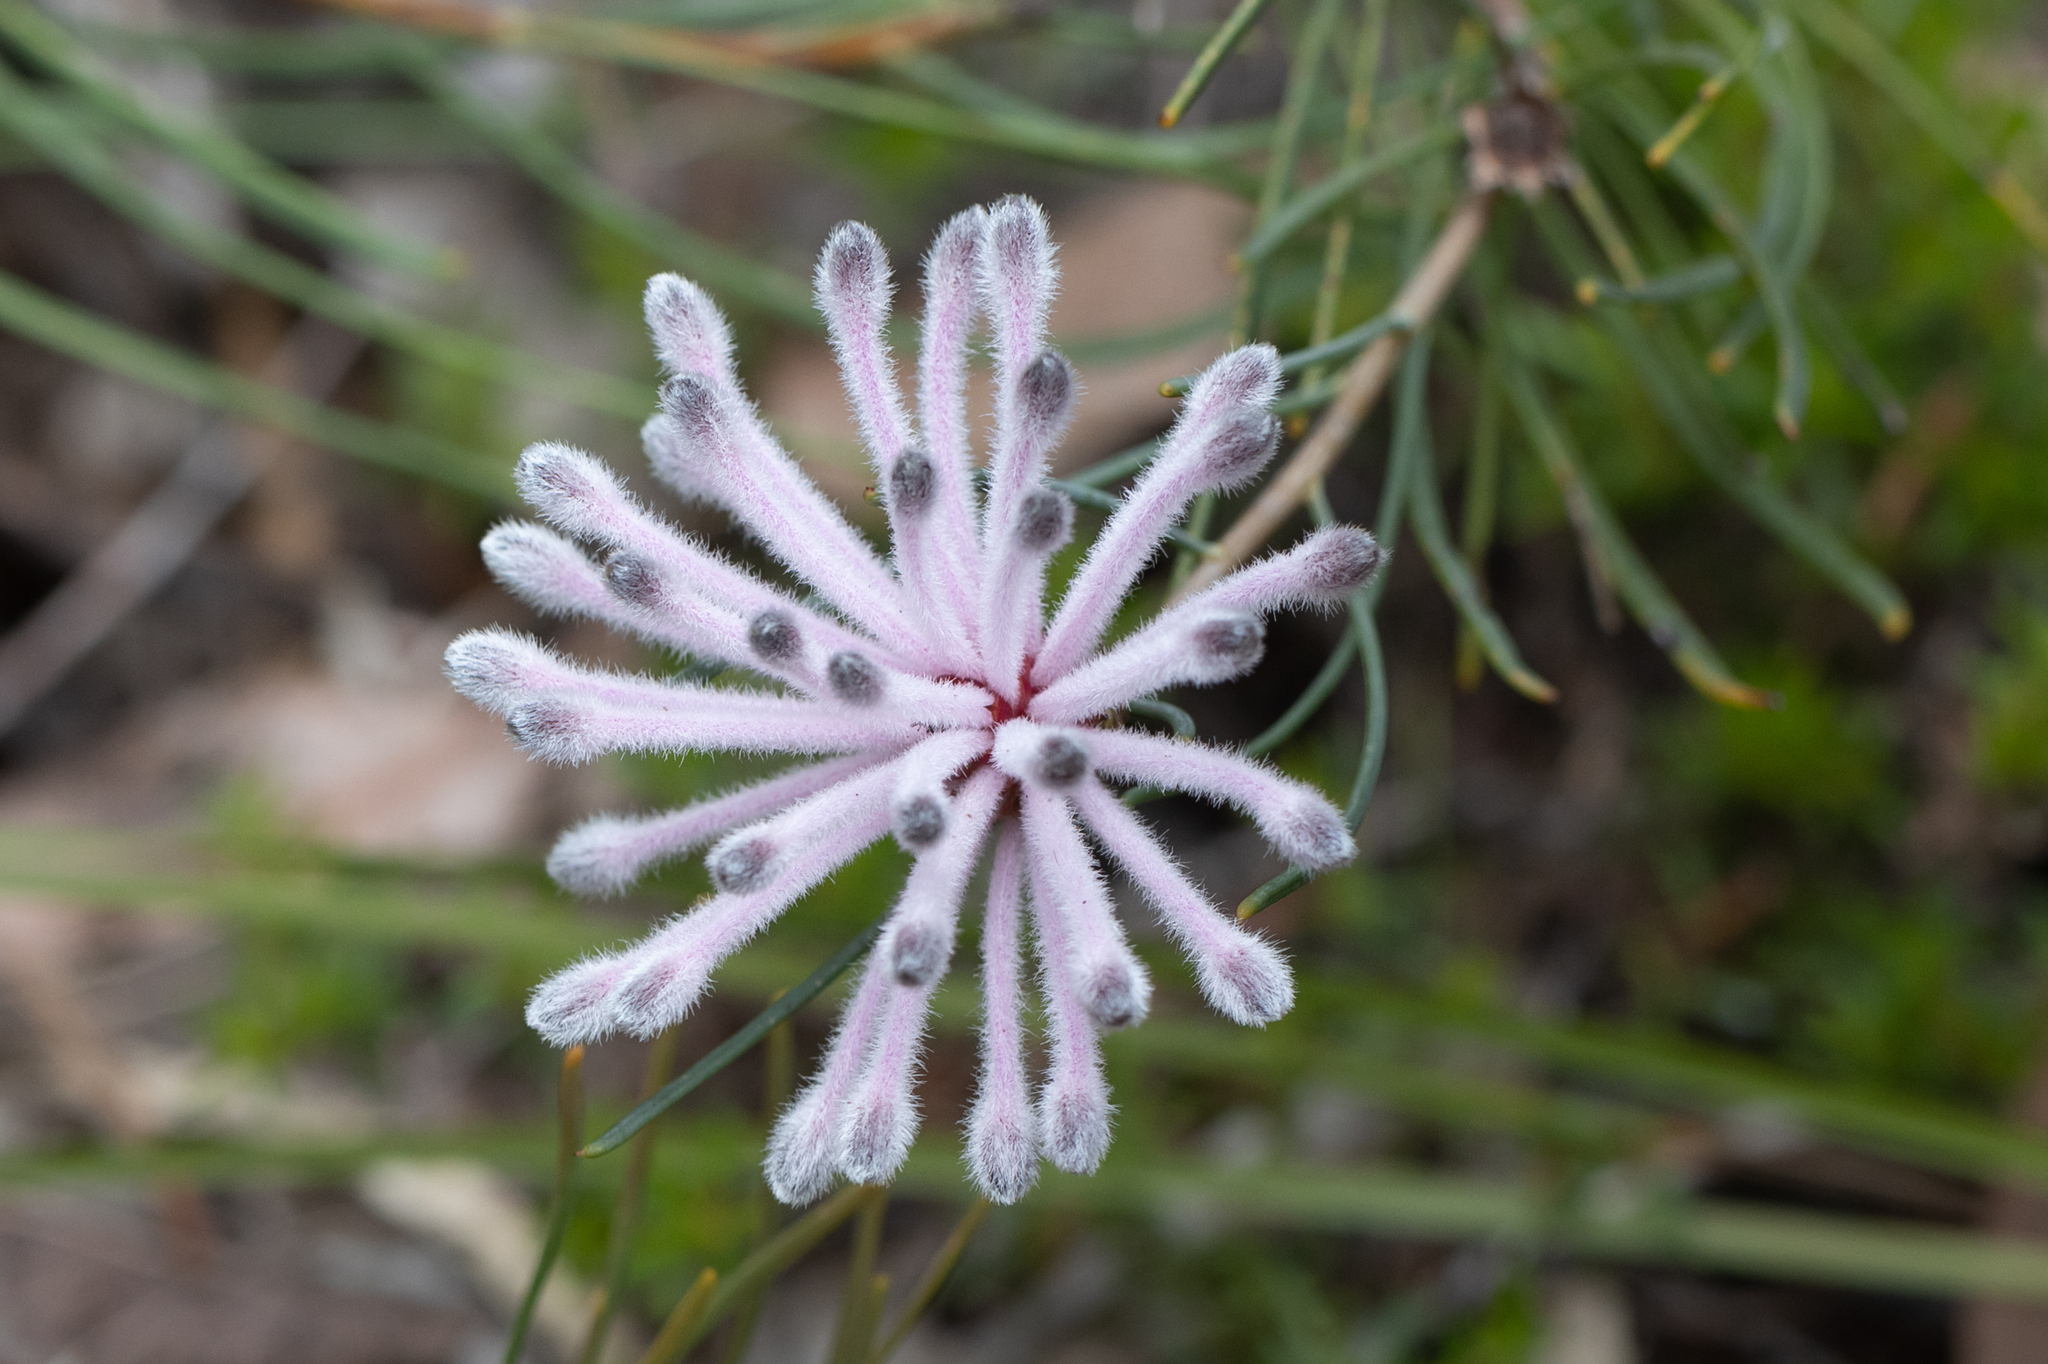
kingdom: Plantae
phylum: Tracheophyta
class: Magnoliopsida
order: Proteales
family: Proteaceae
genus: Petrophile
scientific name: Petrophile linearis
